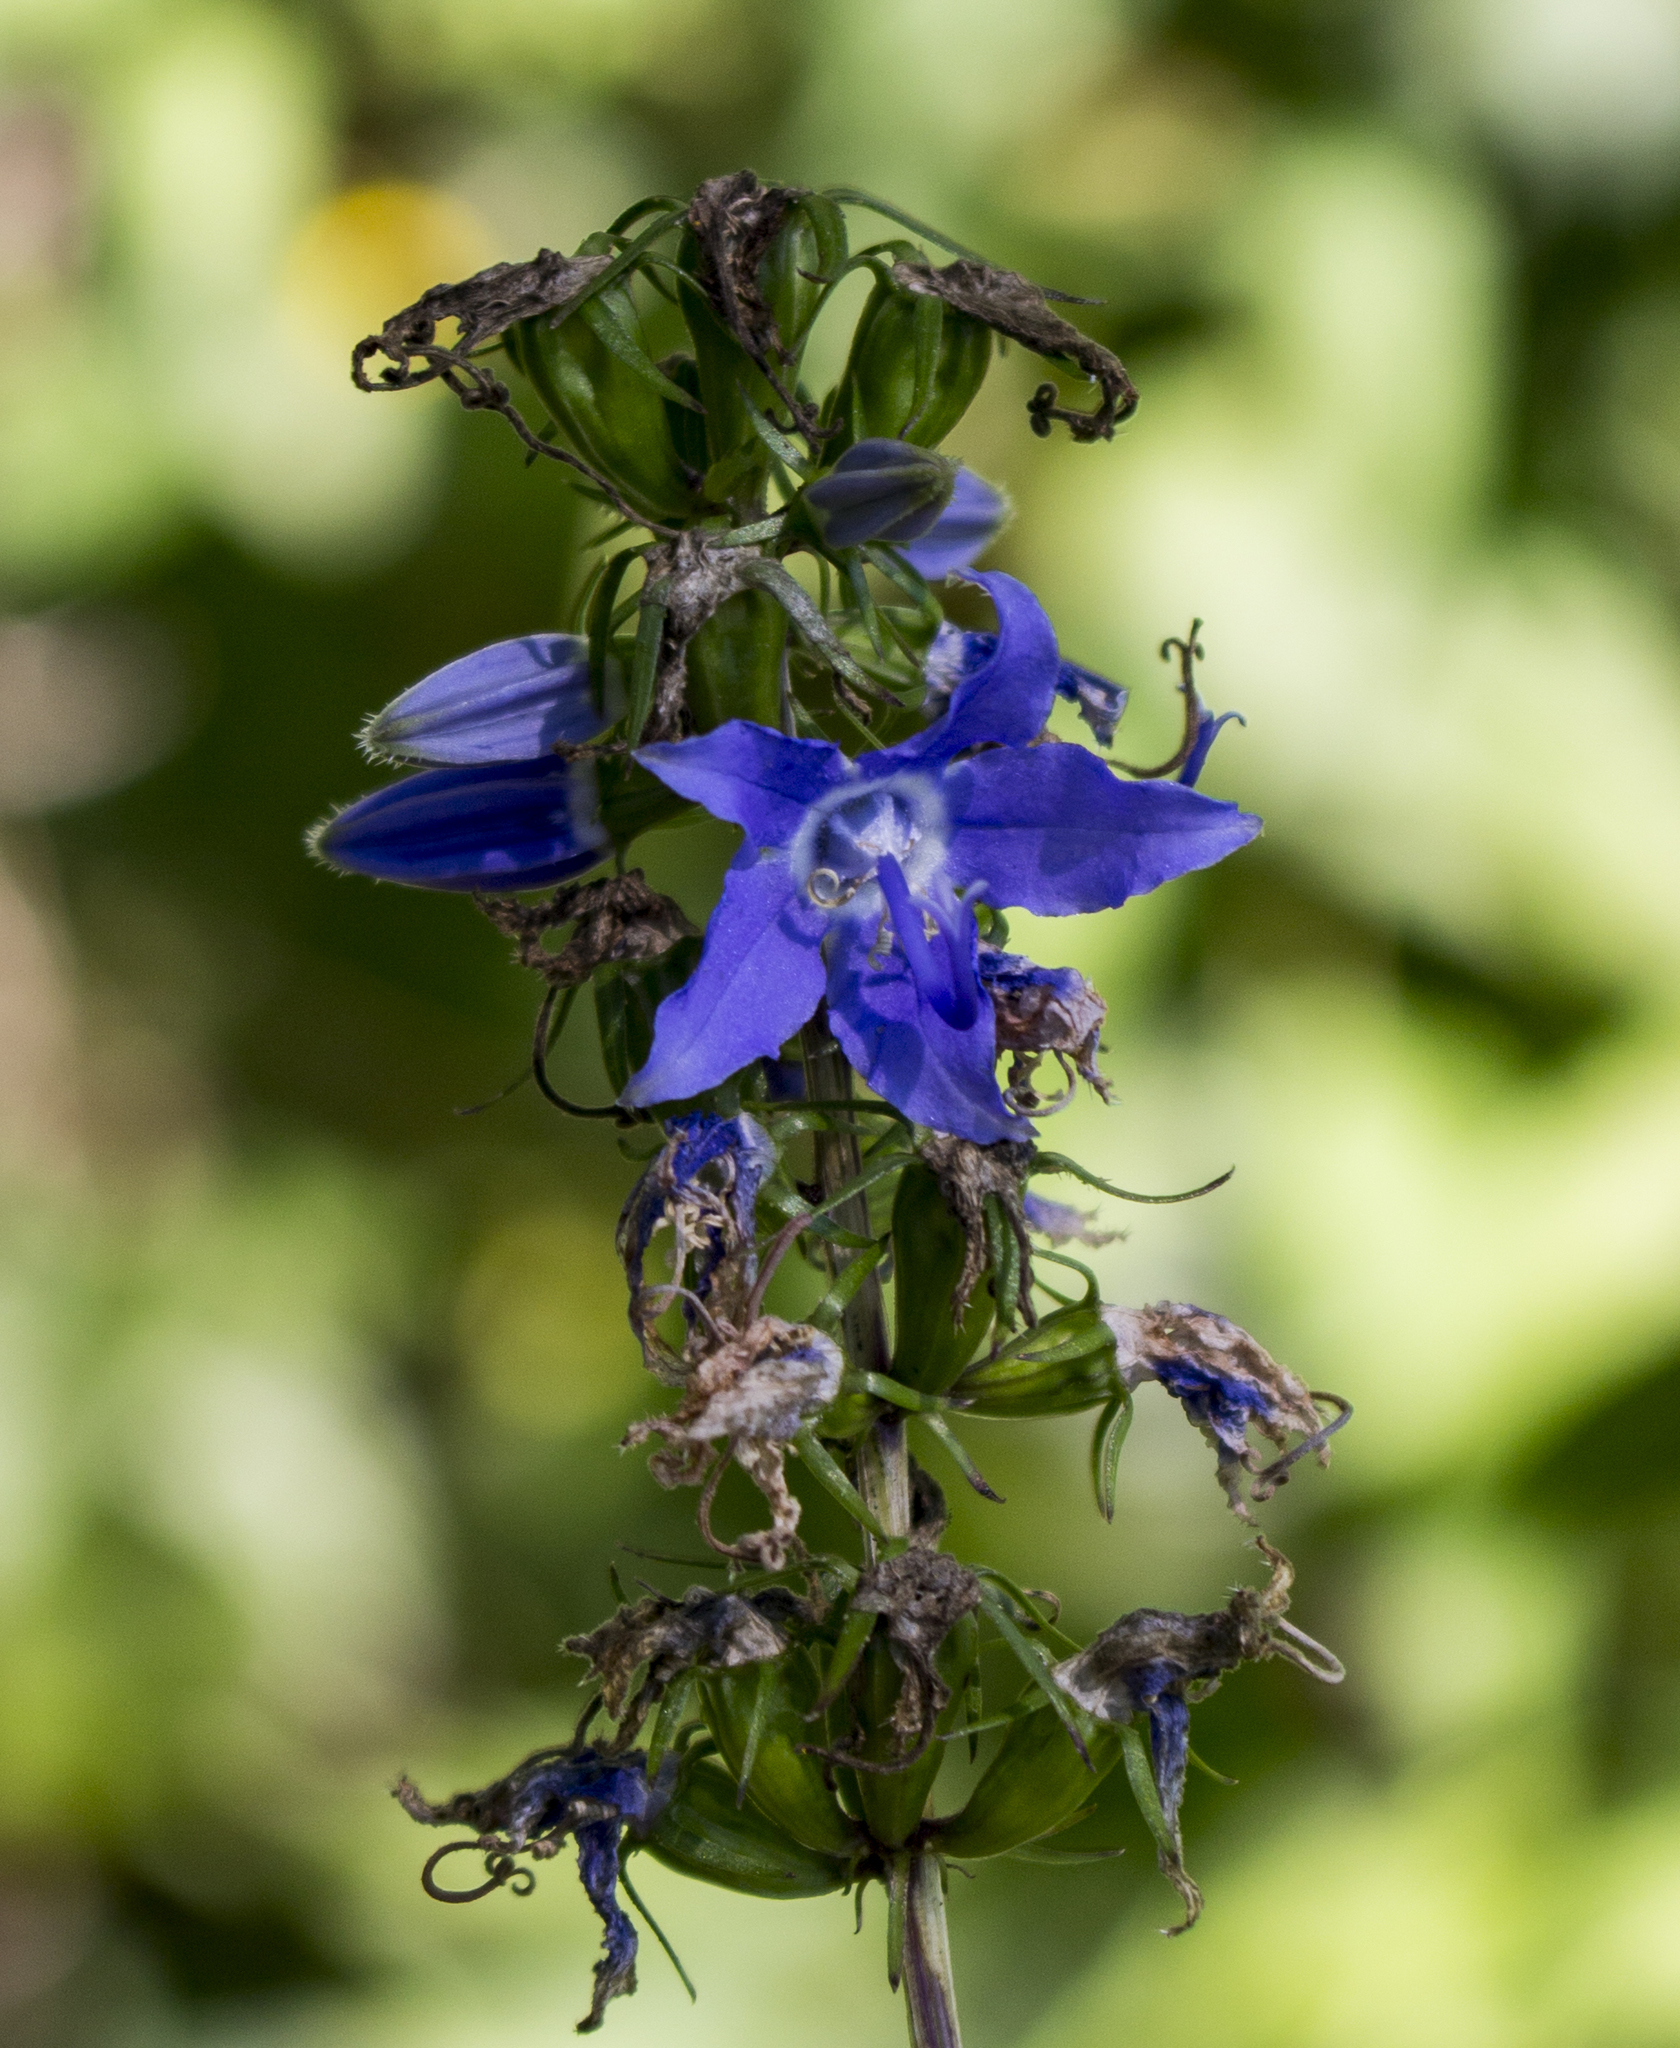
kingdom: Plantae
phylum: Tracheophyta
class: Magnoliopsida
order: Asterales
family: Campanulaceae
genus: Campanulastrum
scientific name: Campanulastrum americanum
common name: American bellflower
